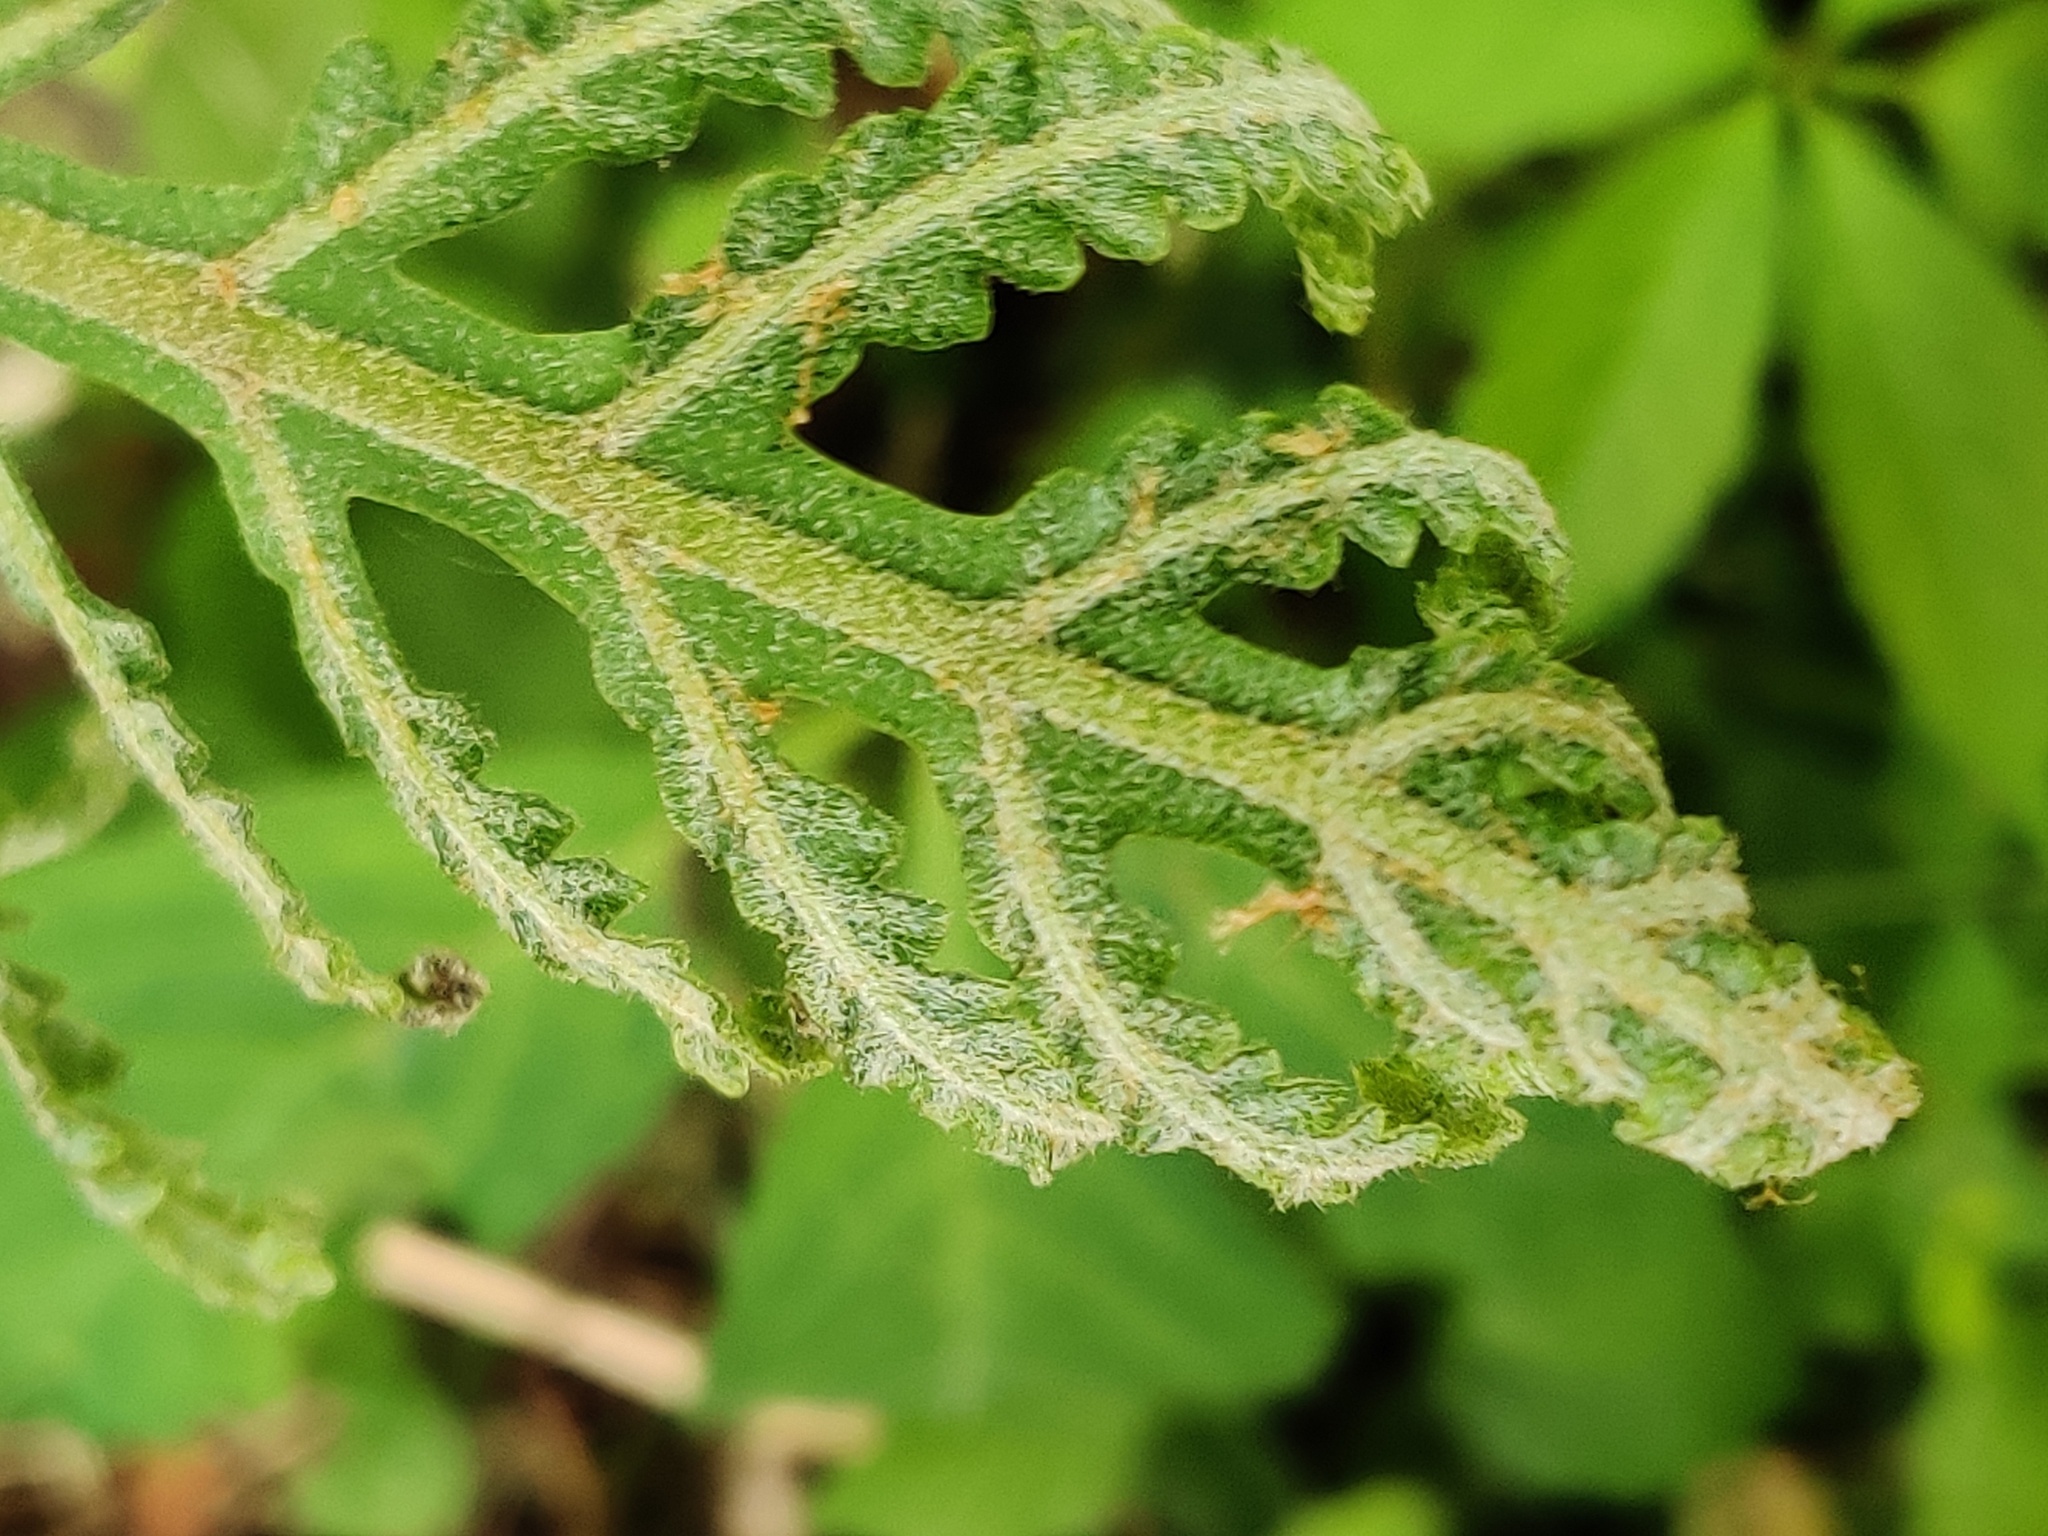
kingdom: Plantae
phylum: Tracheophyta
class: Polypodiopsida
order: Polypodiales
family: Onocleaceae
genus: Onoclea
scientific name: Onoclea sensibilis
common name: Sensitive fern
